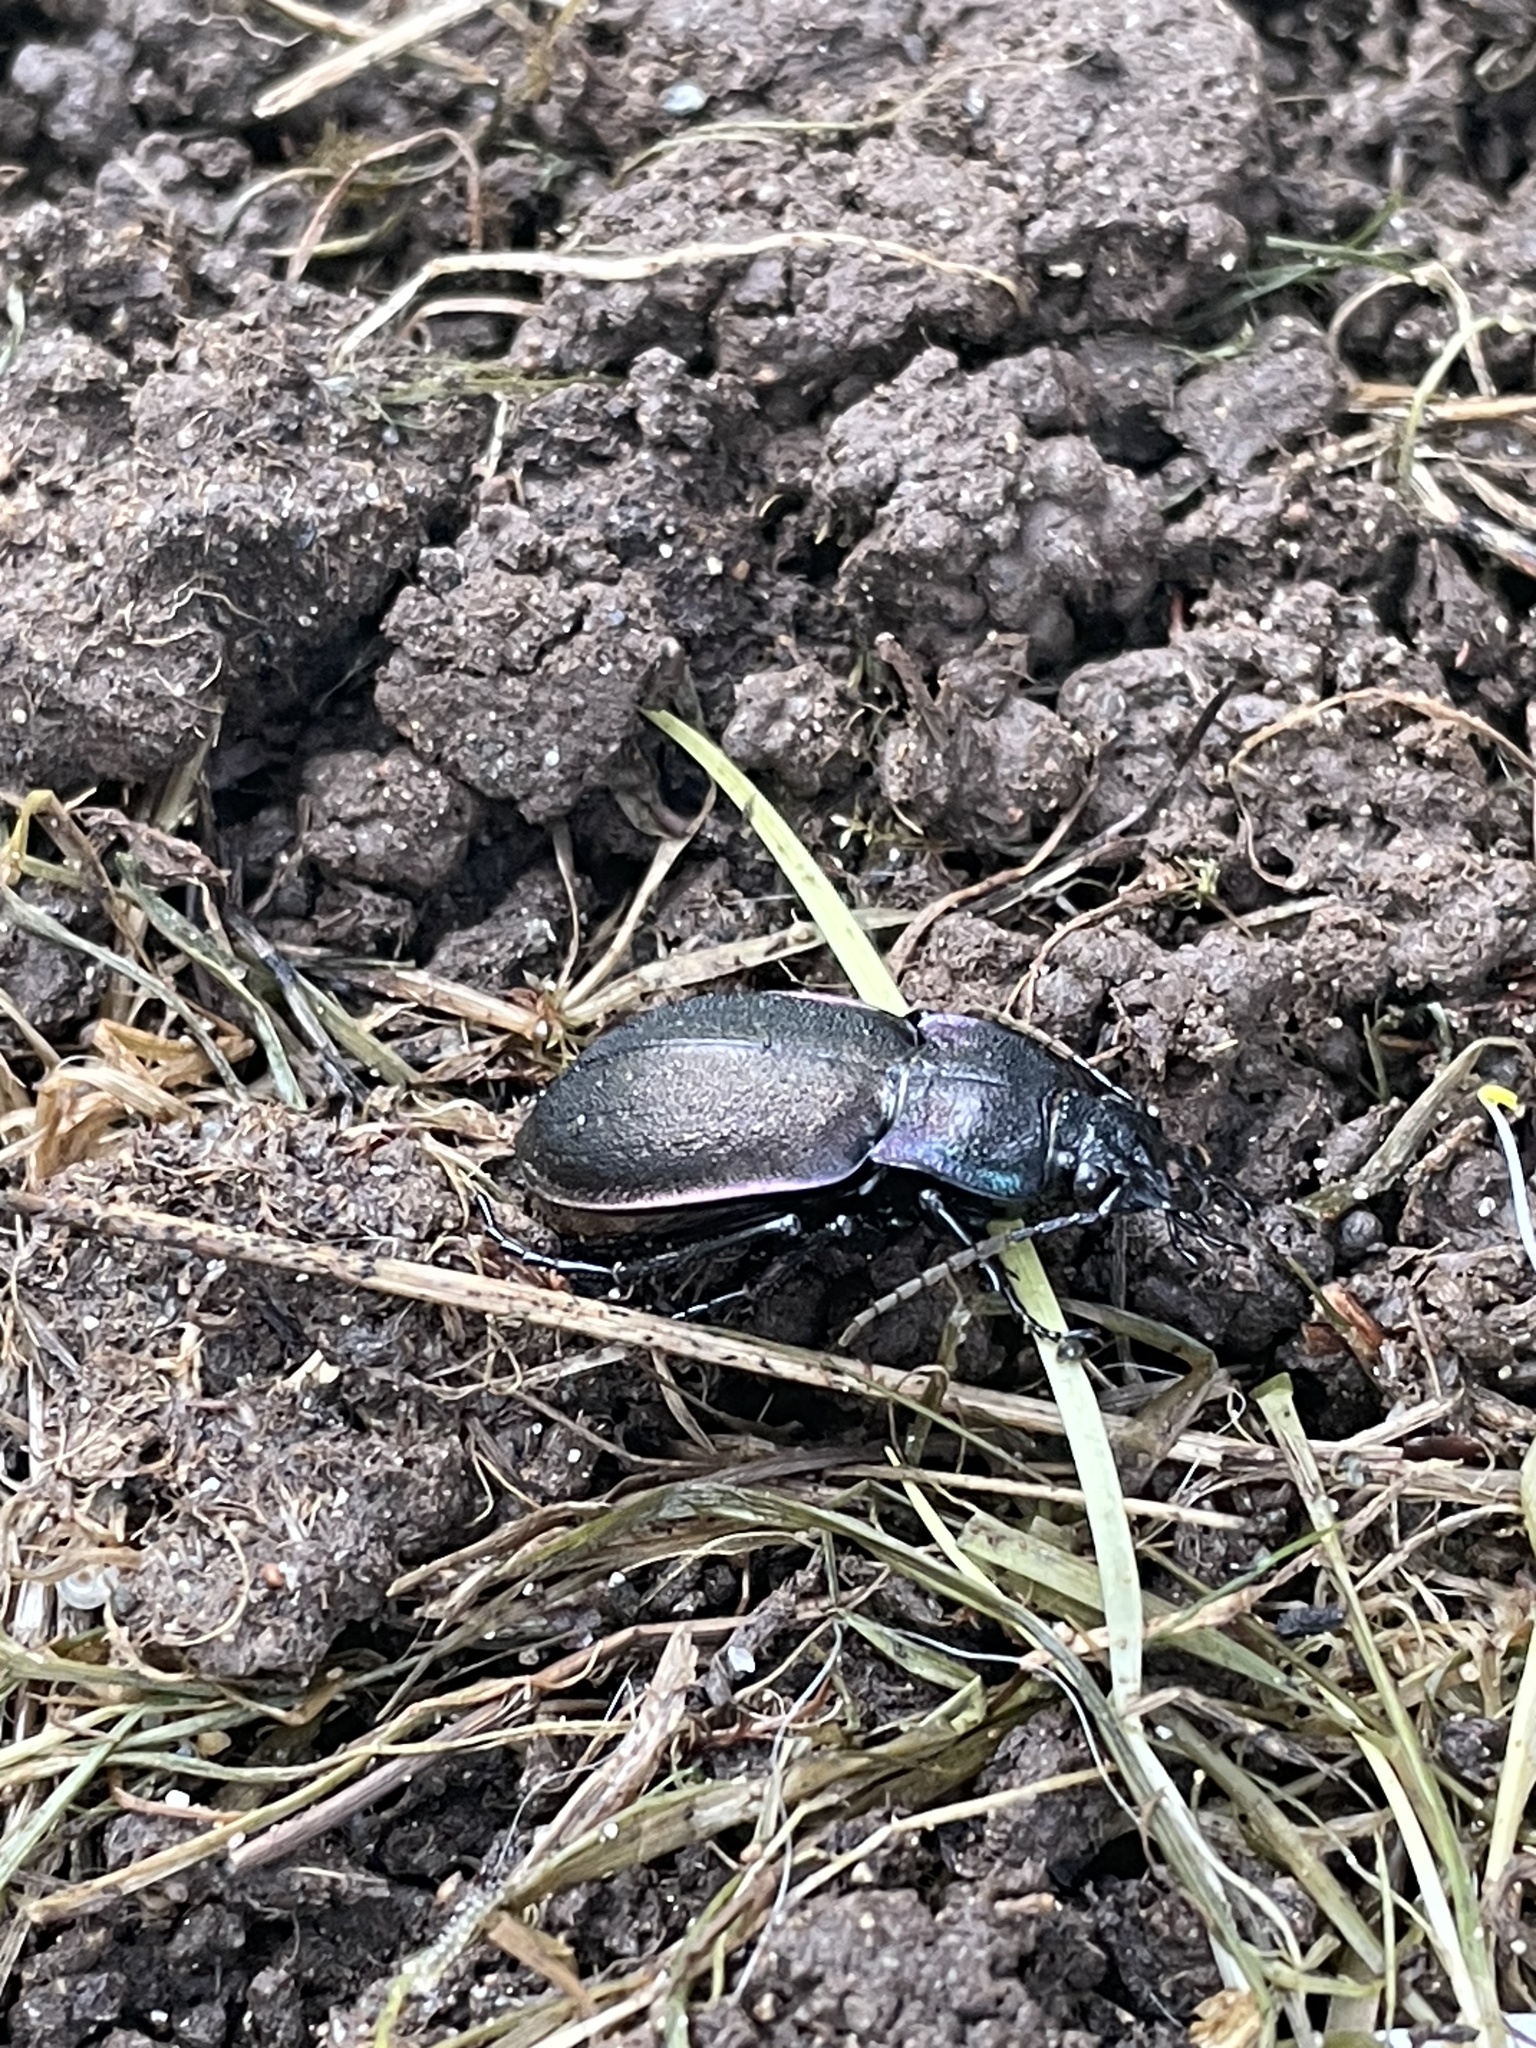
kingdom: Animalia
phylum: Arthropoda
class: Insecta
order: Coleoptera
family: Carabidae
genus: Carabus
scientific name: Carabus nemoralis
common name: European ground beetle
